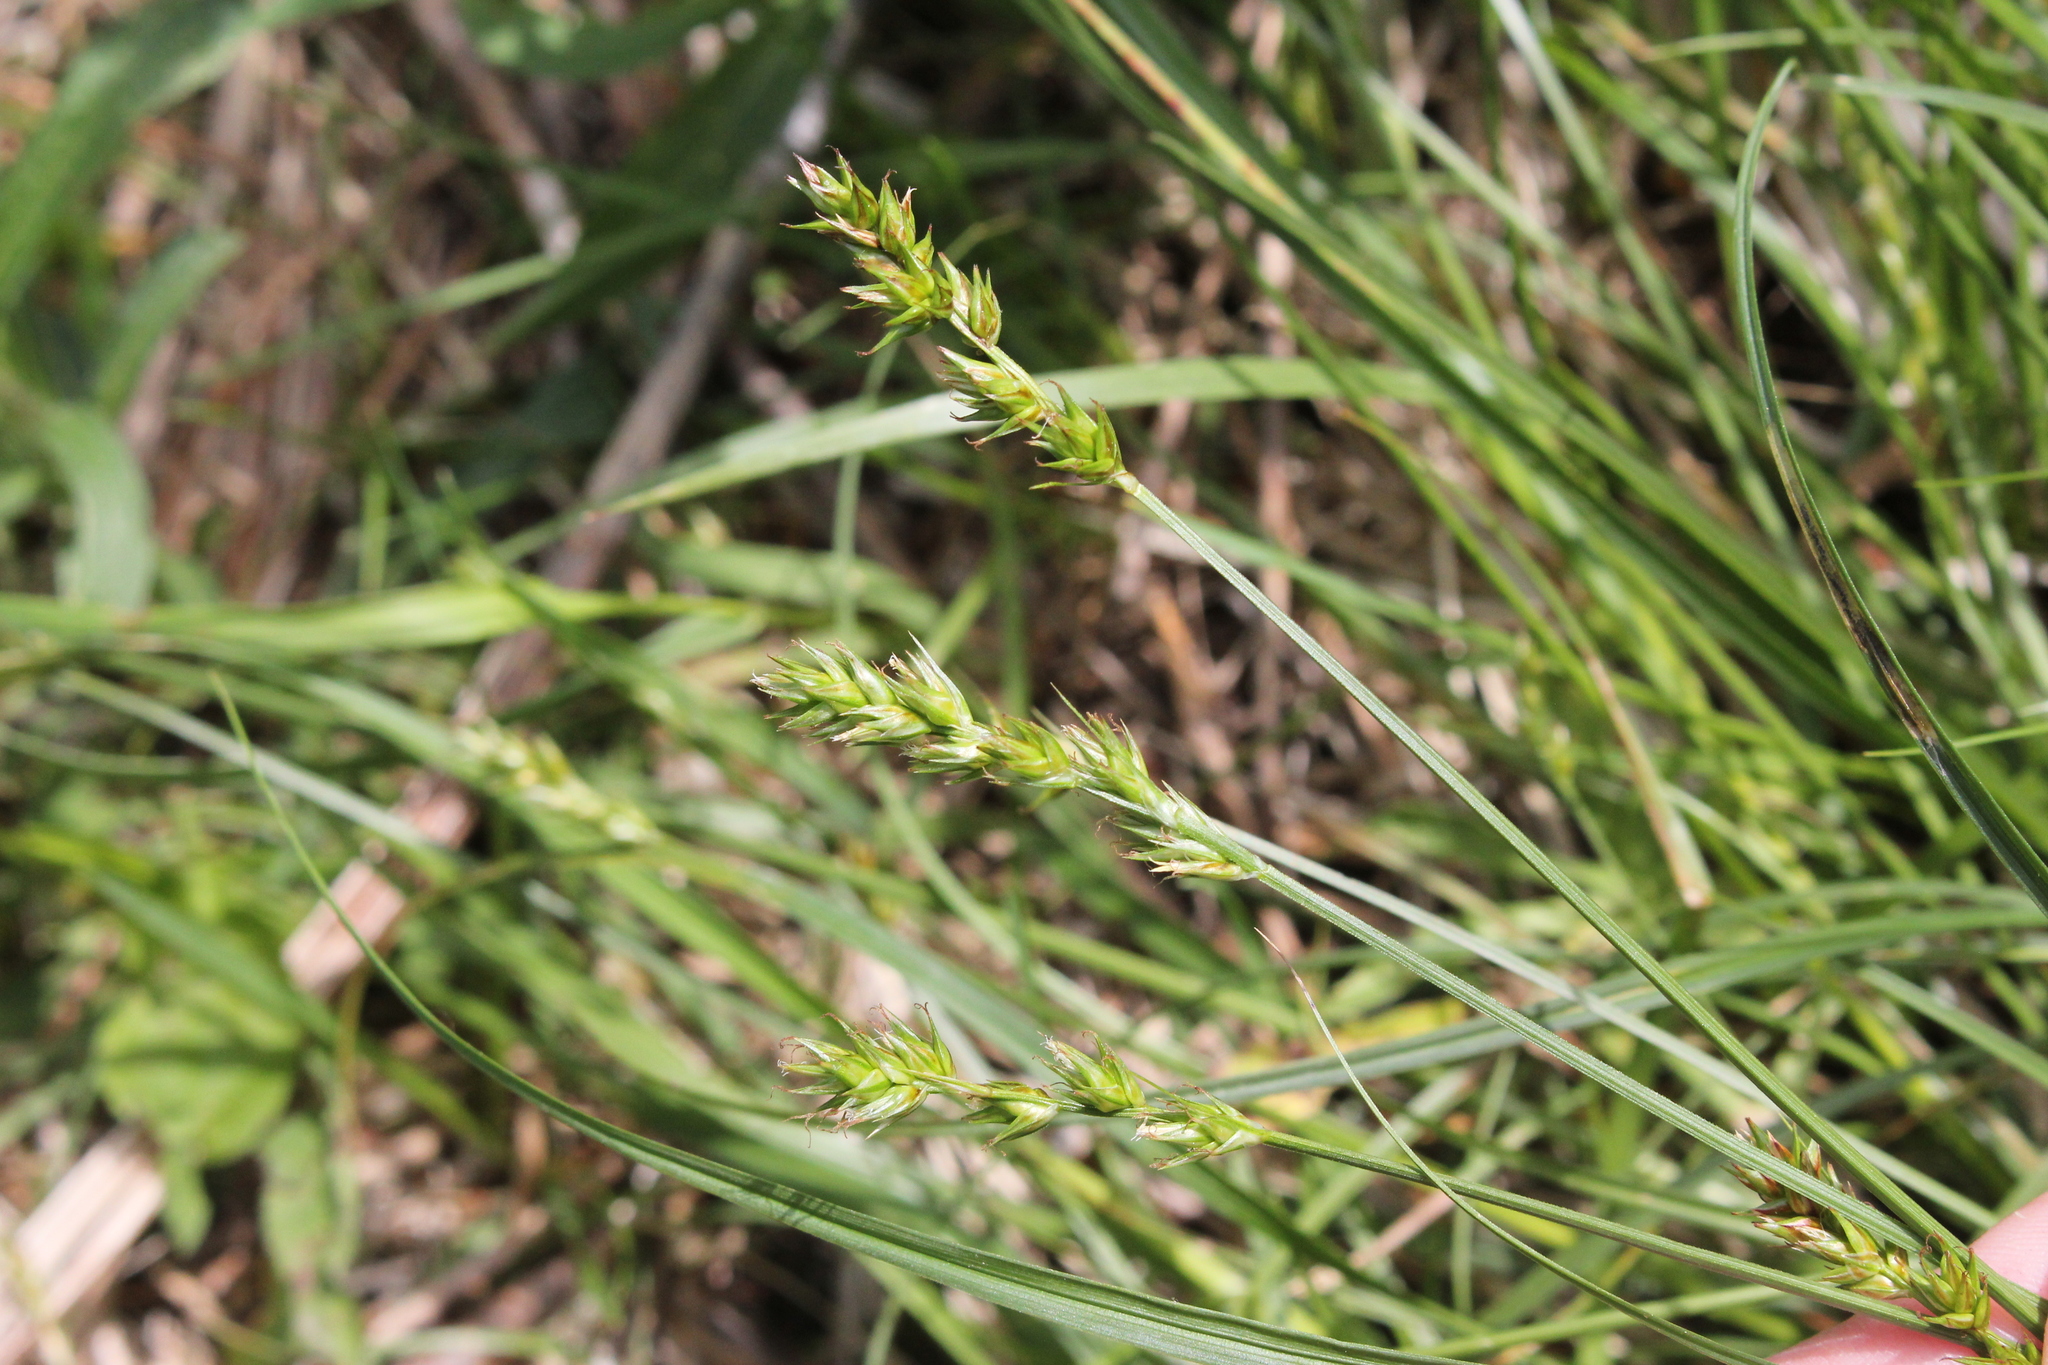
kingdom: Plantae
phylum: Tracheophyta
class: Liliopsida
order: Poales
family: Cyperaceae
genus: Carex
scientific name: Carex spicata
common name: Spiked sedge
